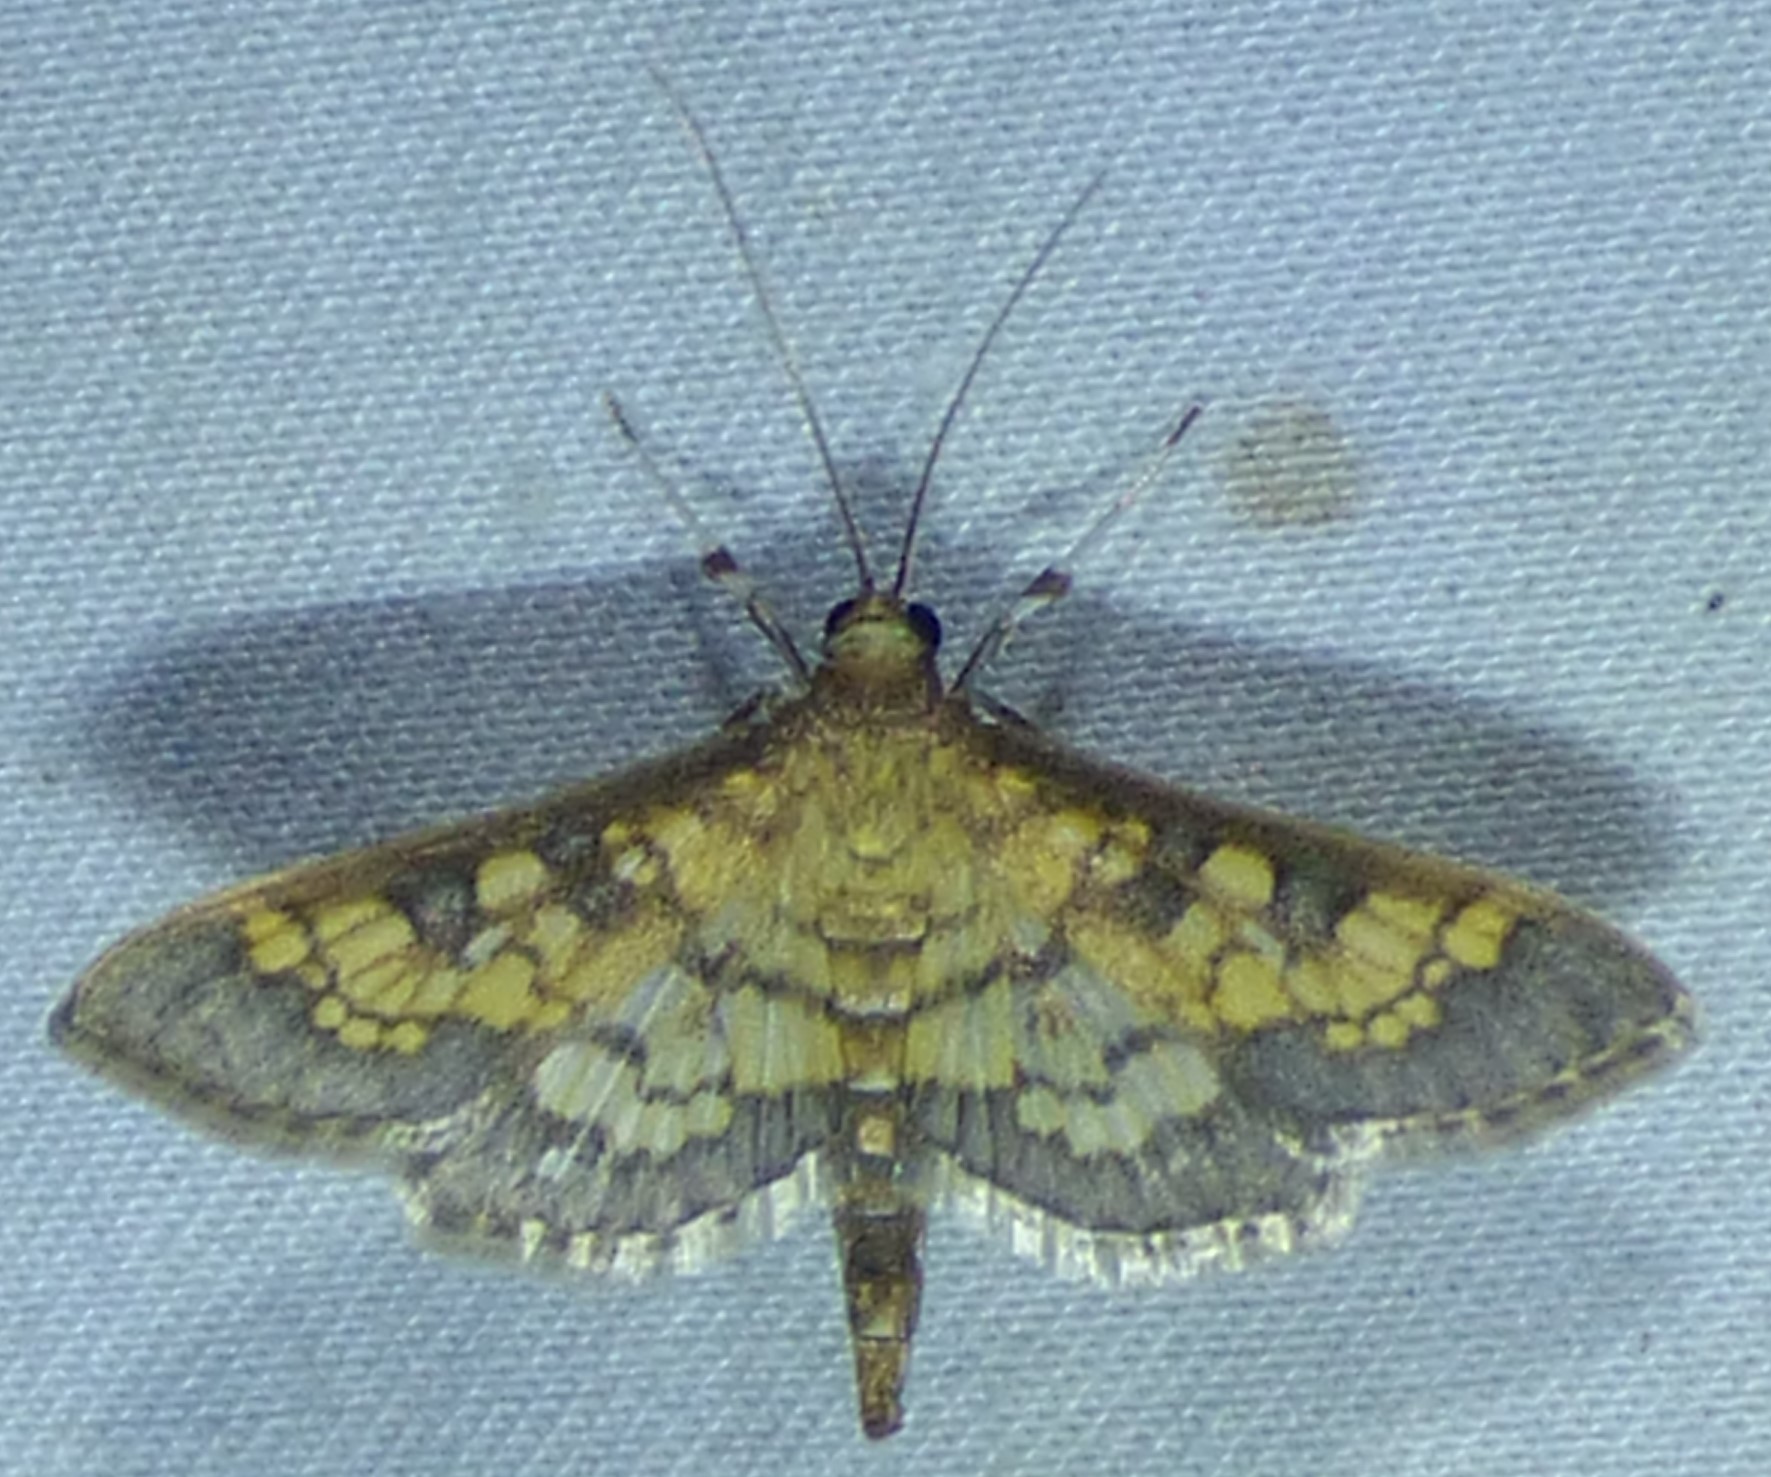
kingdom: Animalia
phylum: Arthropoda
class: Insecta
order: Lepidoptera
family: Crambidae
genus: Epipagis
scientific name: Epipagis adipaloides
